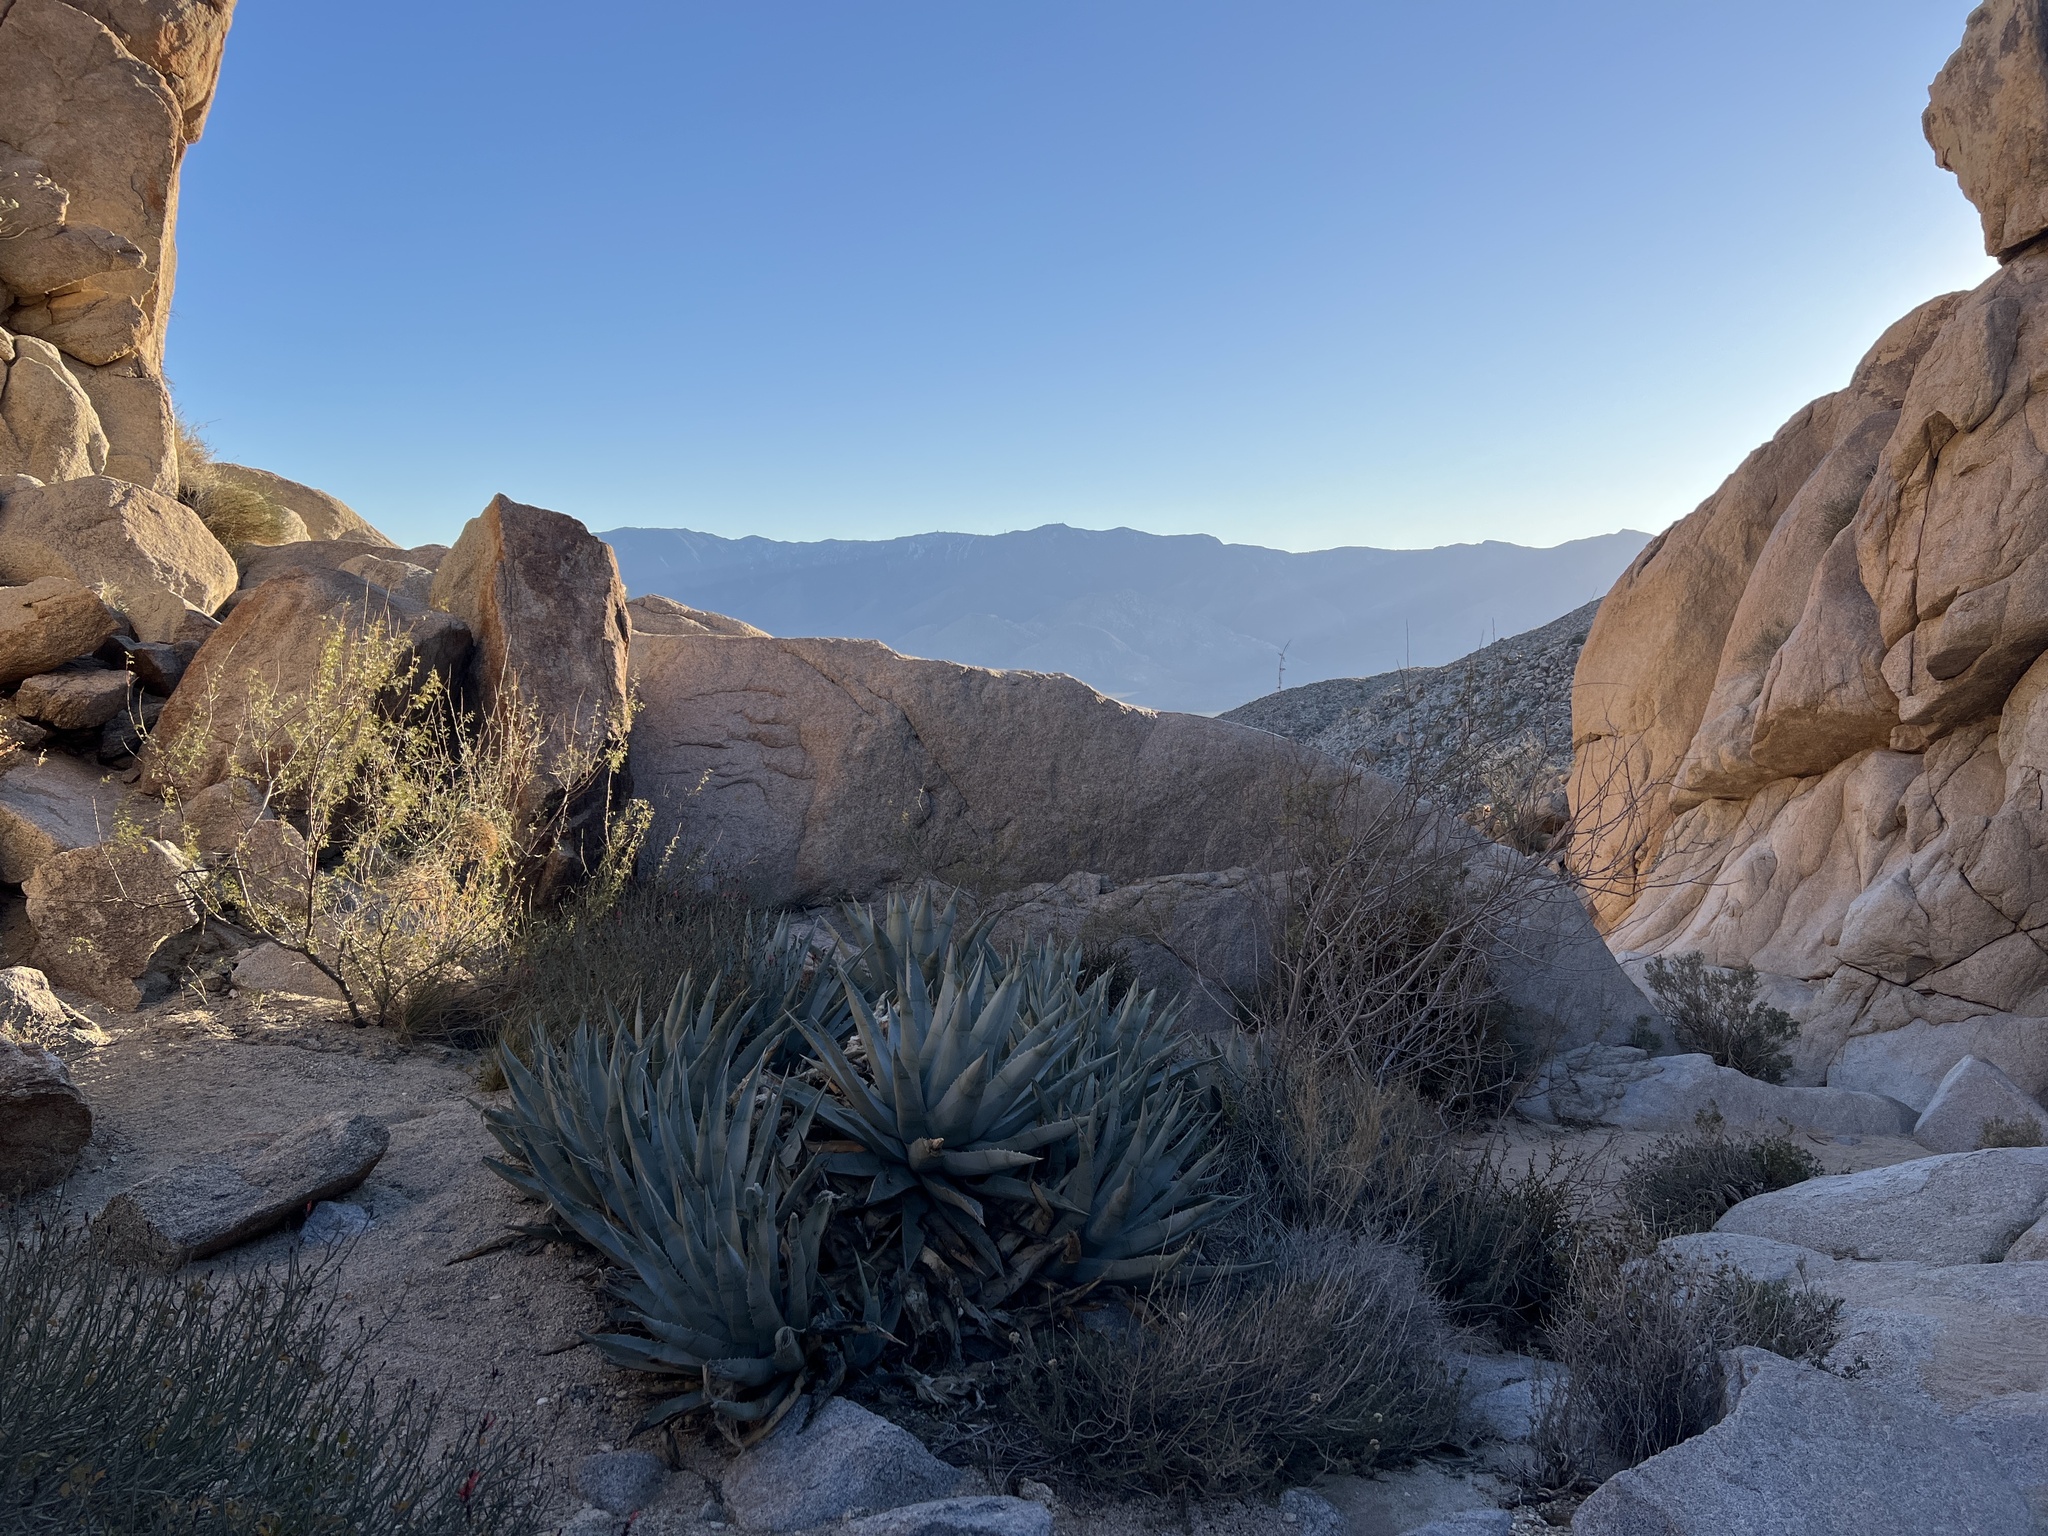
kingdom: Plantae
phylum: Tracheophyta
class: Liliopsida
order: Asparagales
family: Asparagaceae
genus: Agave
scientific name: Agave deserti
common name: Desert agave
